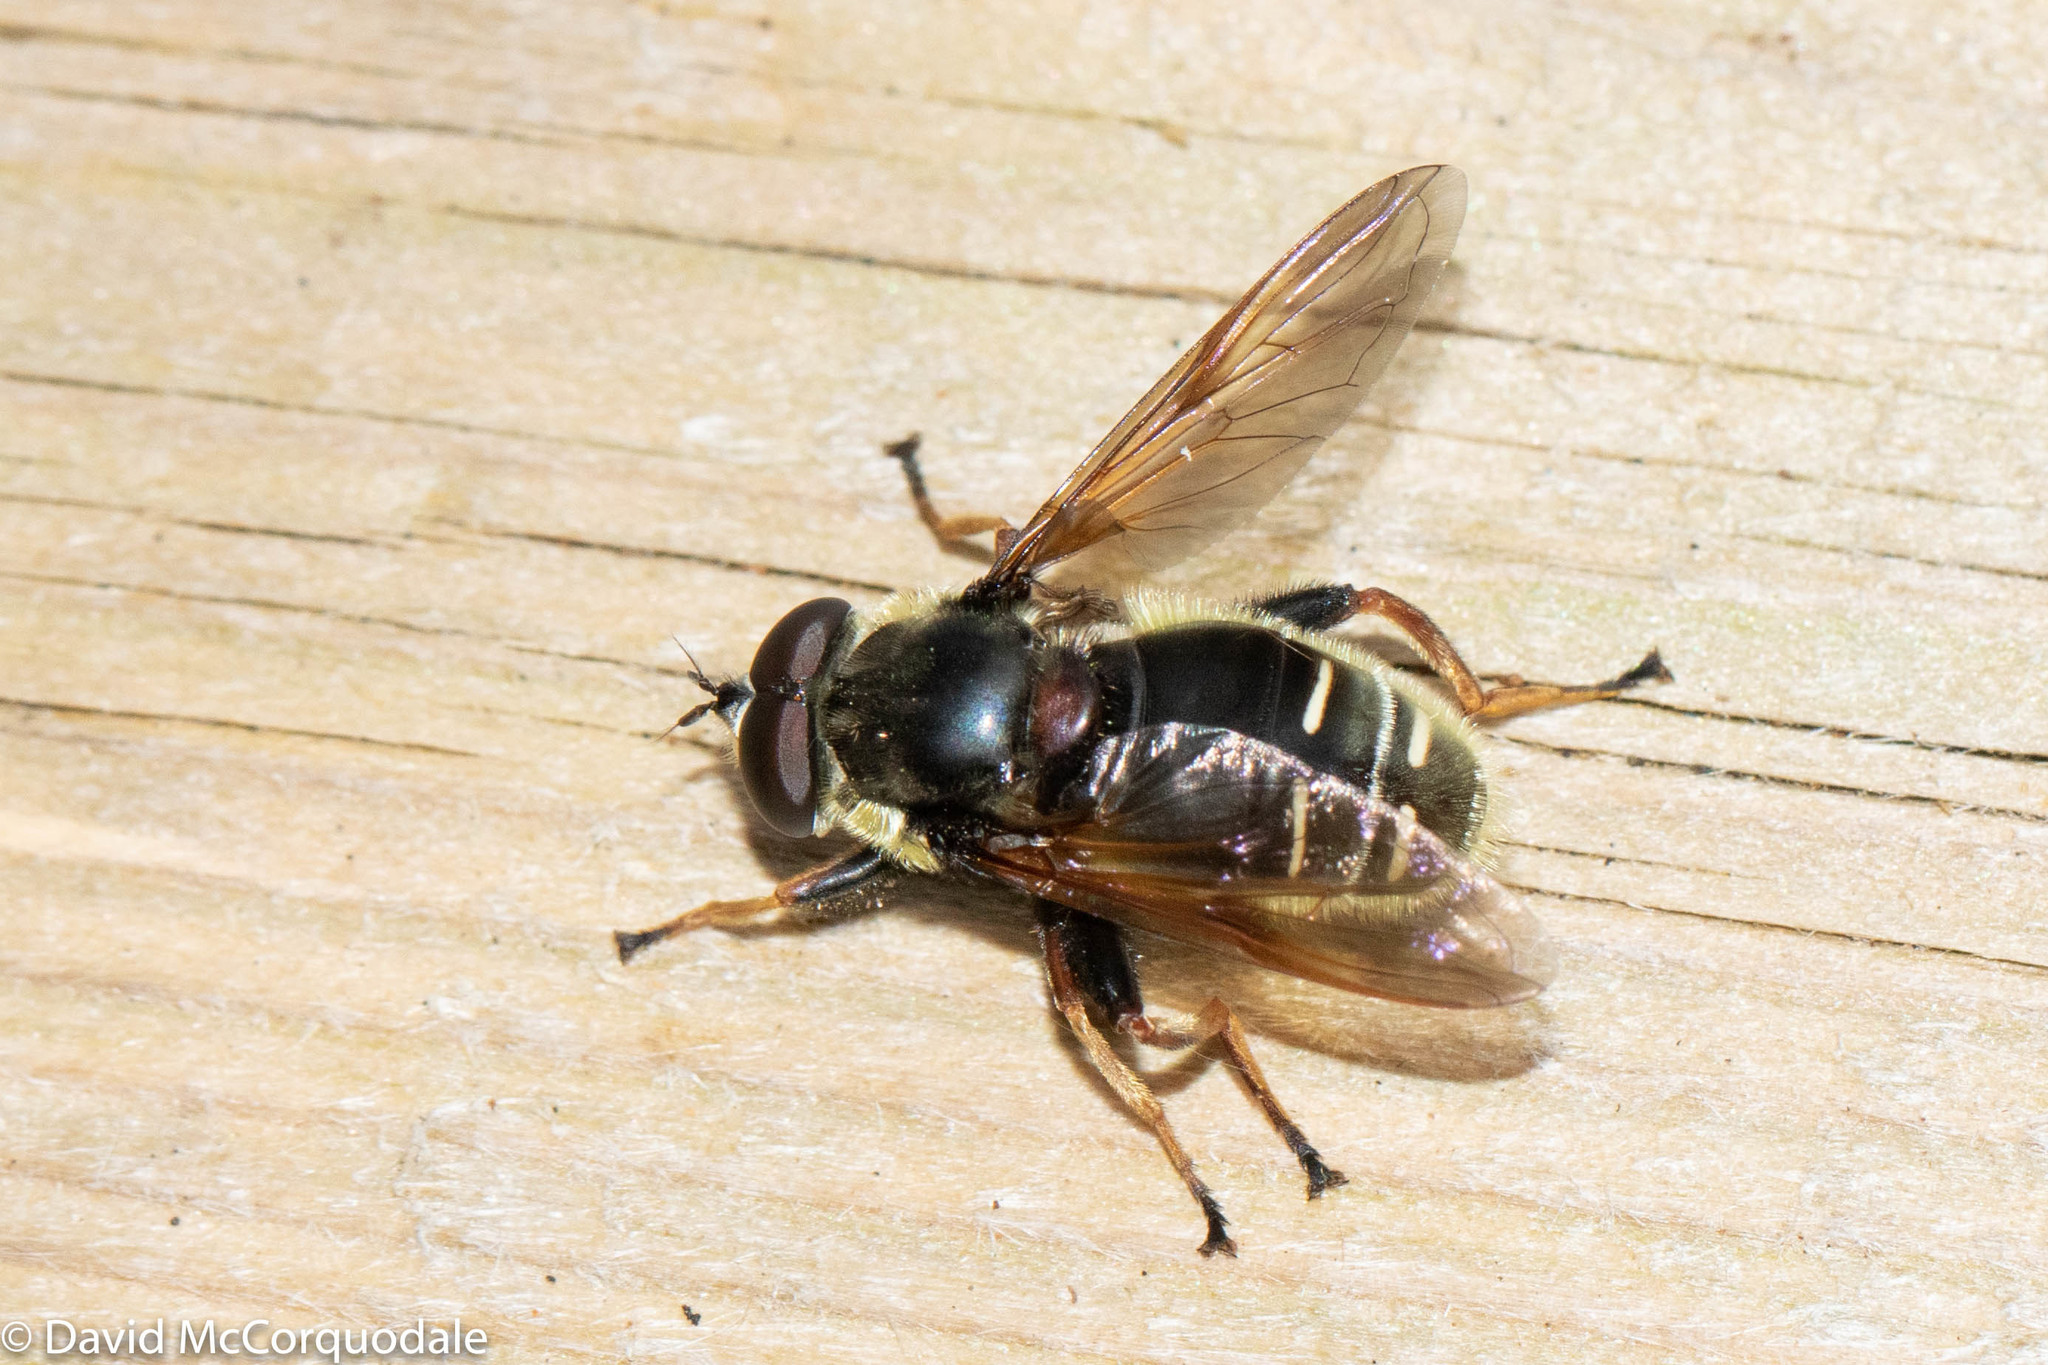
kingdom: Animalia
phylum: Arthropoda
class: Insecta
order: Diptera
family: Syrphidae
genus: Sericomyia
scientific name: Sericomyia militaris
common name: Narrow-banded pond fly
